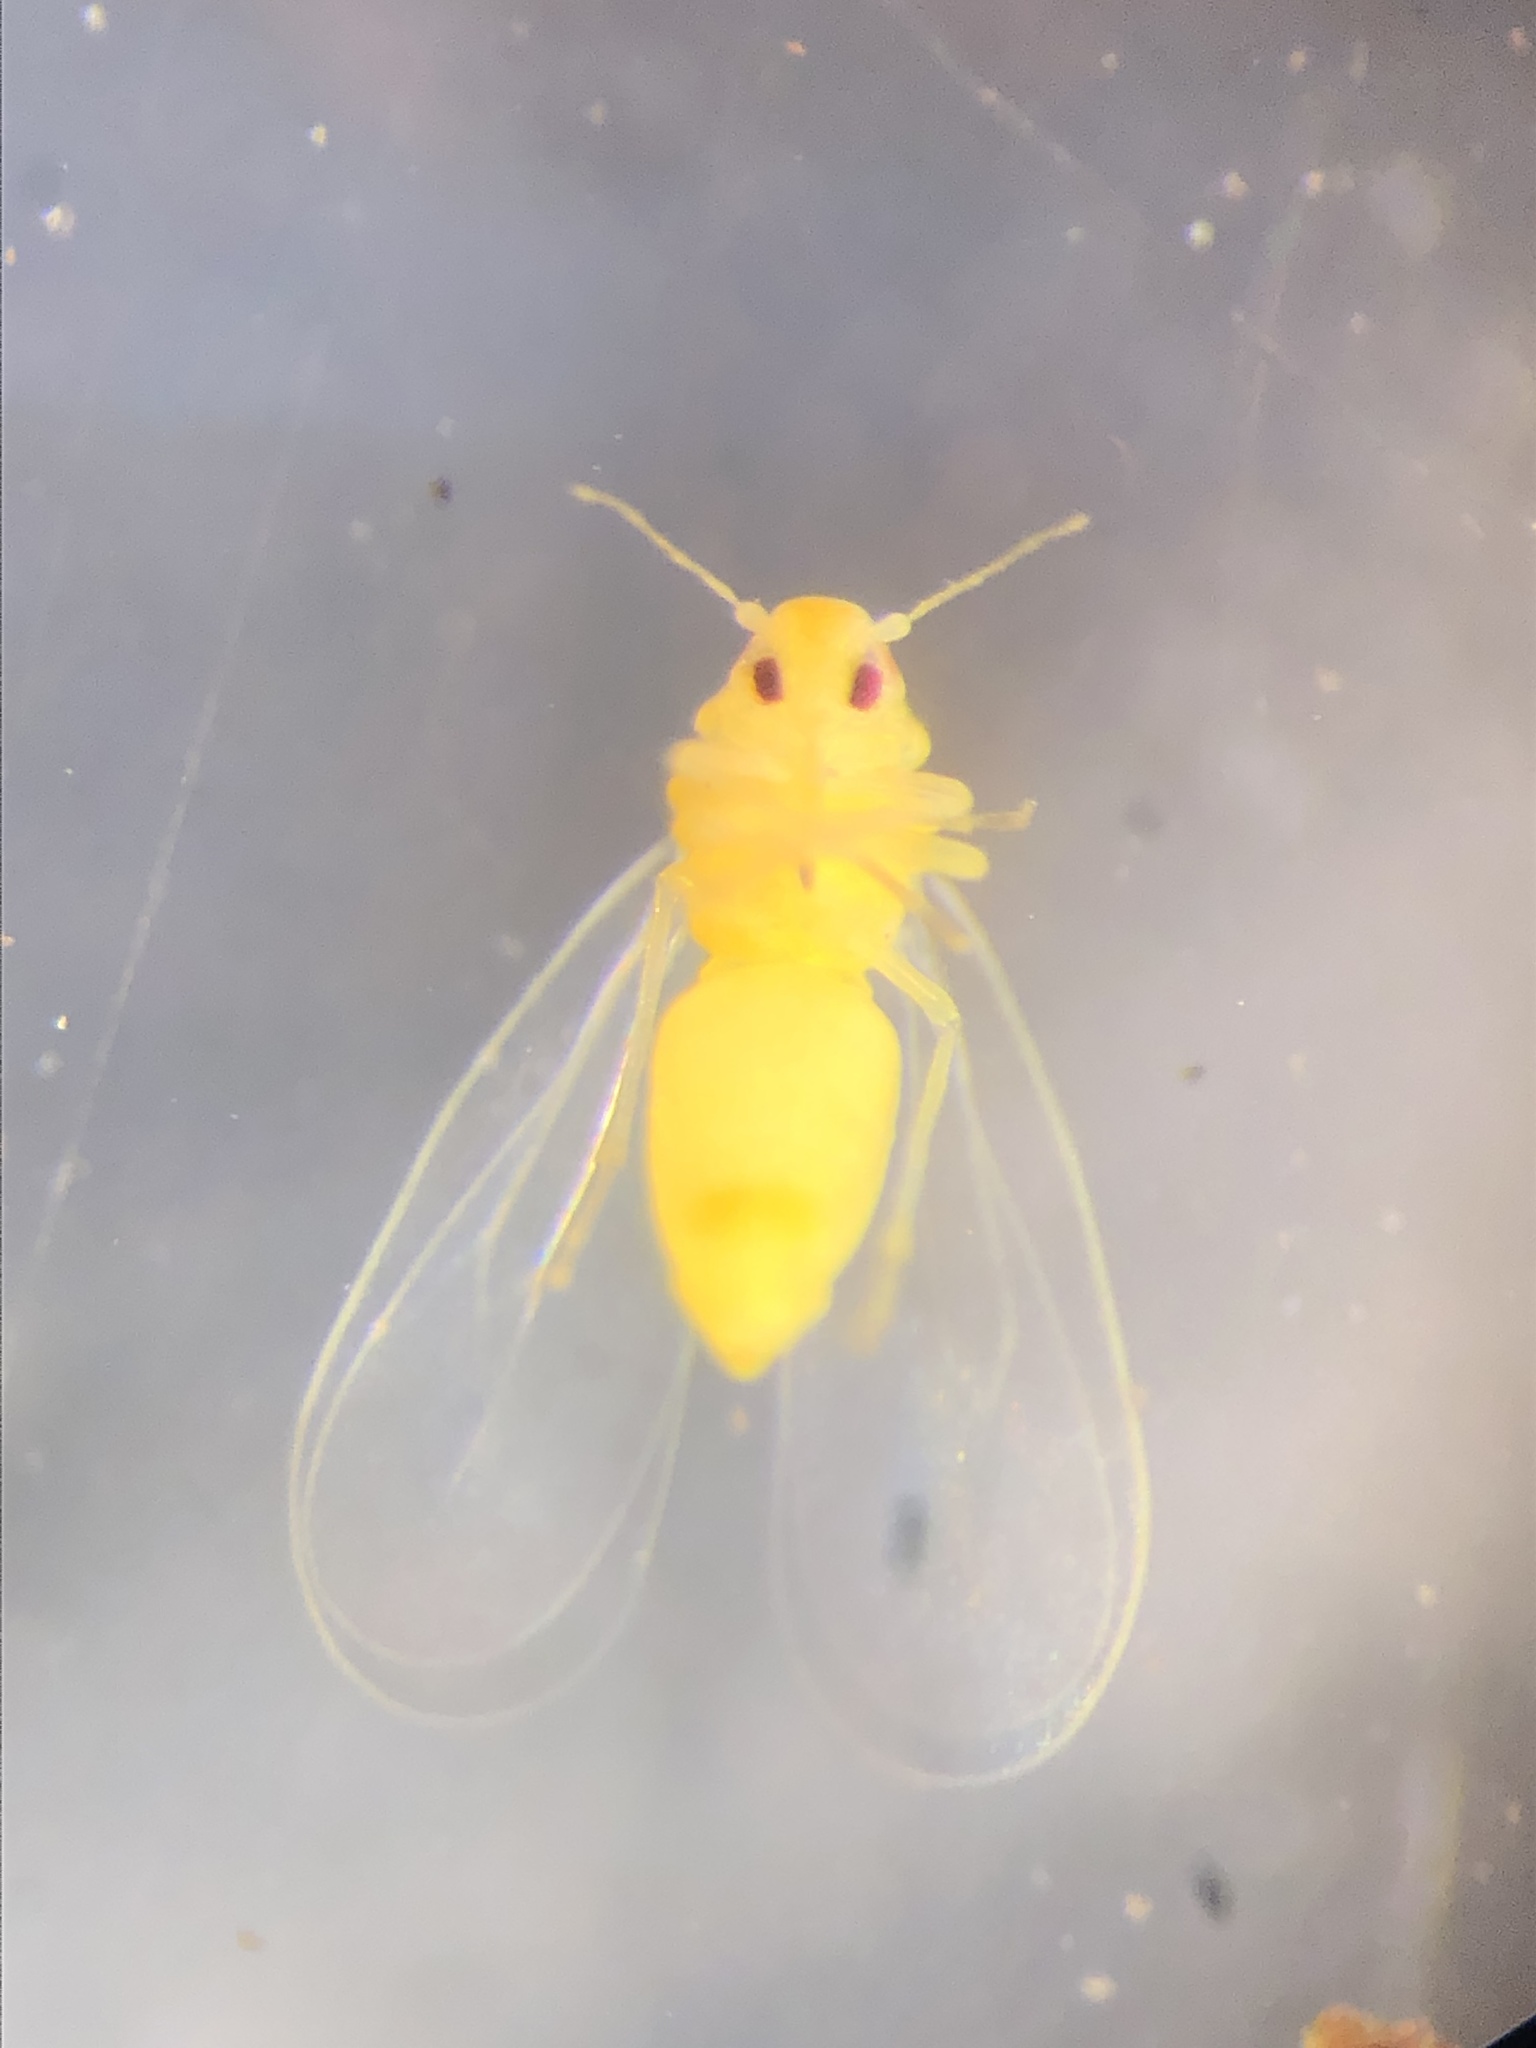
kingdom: Animalia
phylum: Arthropoda
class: Insecta
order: Hemiptera
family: Aleyrodidae
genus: Trialeurodes
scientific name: Trialeurodes vaporariorum
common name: Greenhouse white fly
